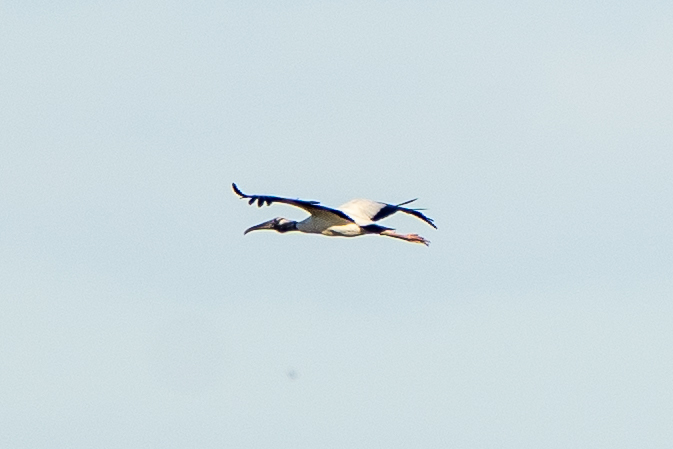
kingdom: Animalia
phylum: Chordata
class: Aves
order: Ciconiiformes
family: Ciconiidae
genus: Mycteria
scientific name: Mycteria americana
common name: Wood stork
